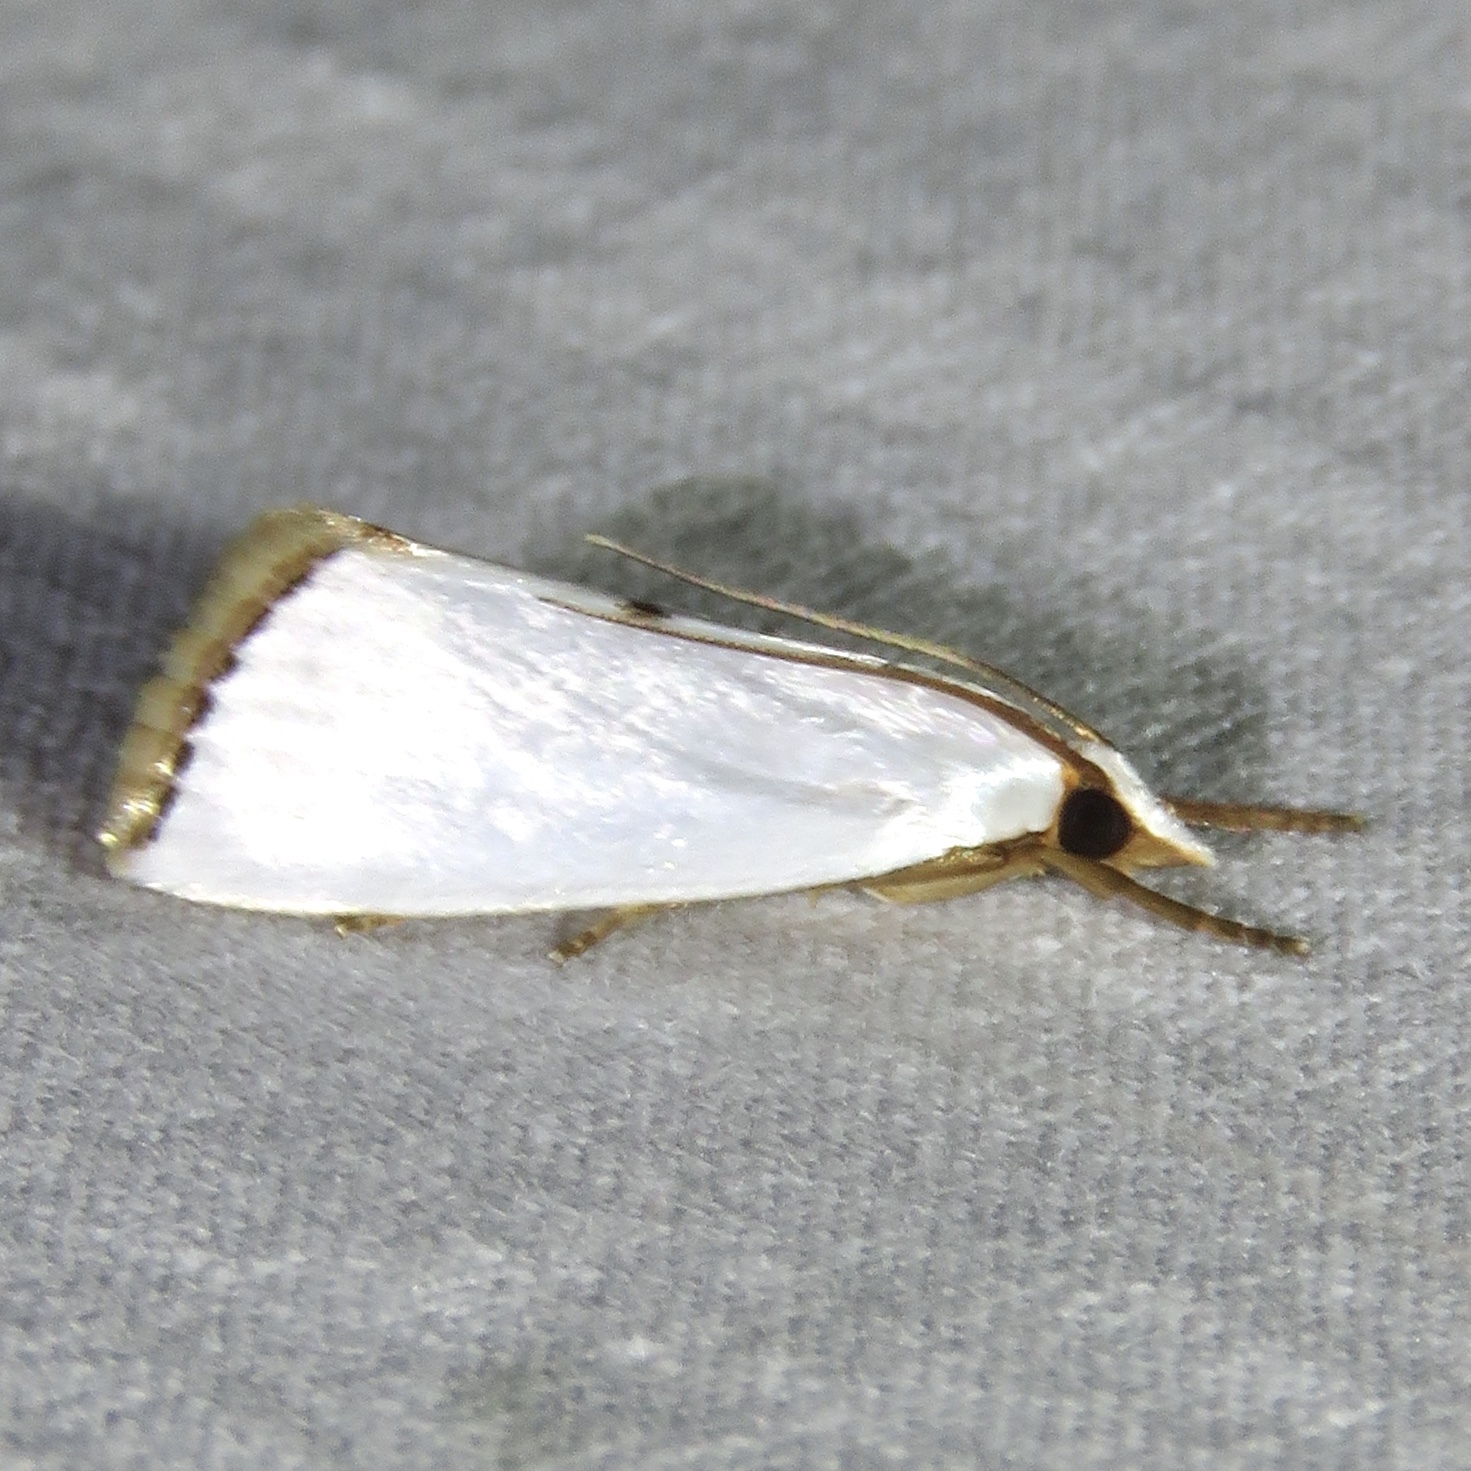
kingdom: Animalia
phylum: Arthropoda
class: Insecta
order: Lepidoptera
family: Crambidae
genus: Argyria
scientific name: Argyria nivalis
